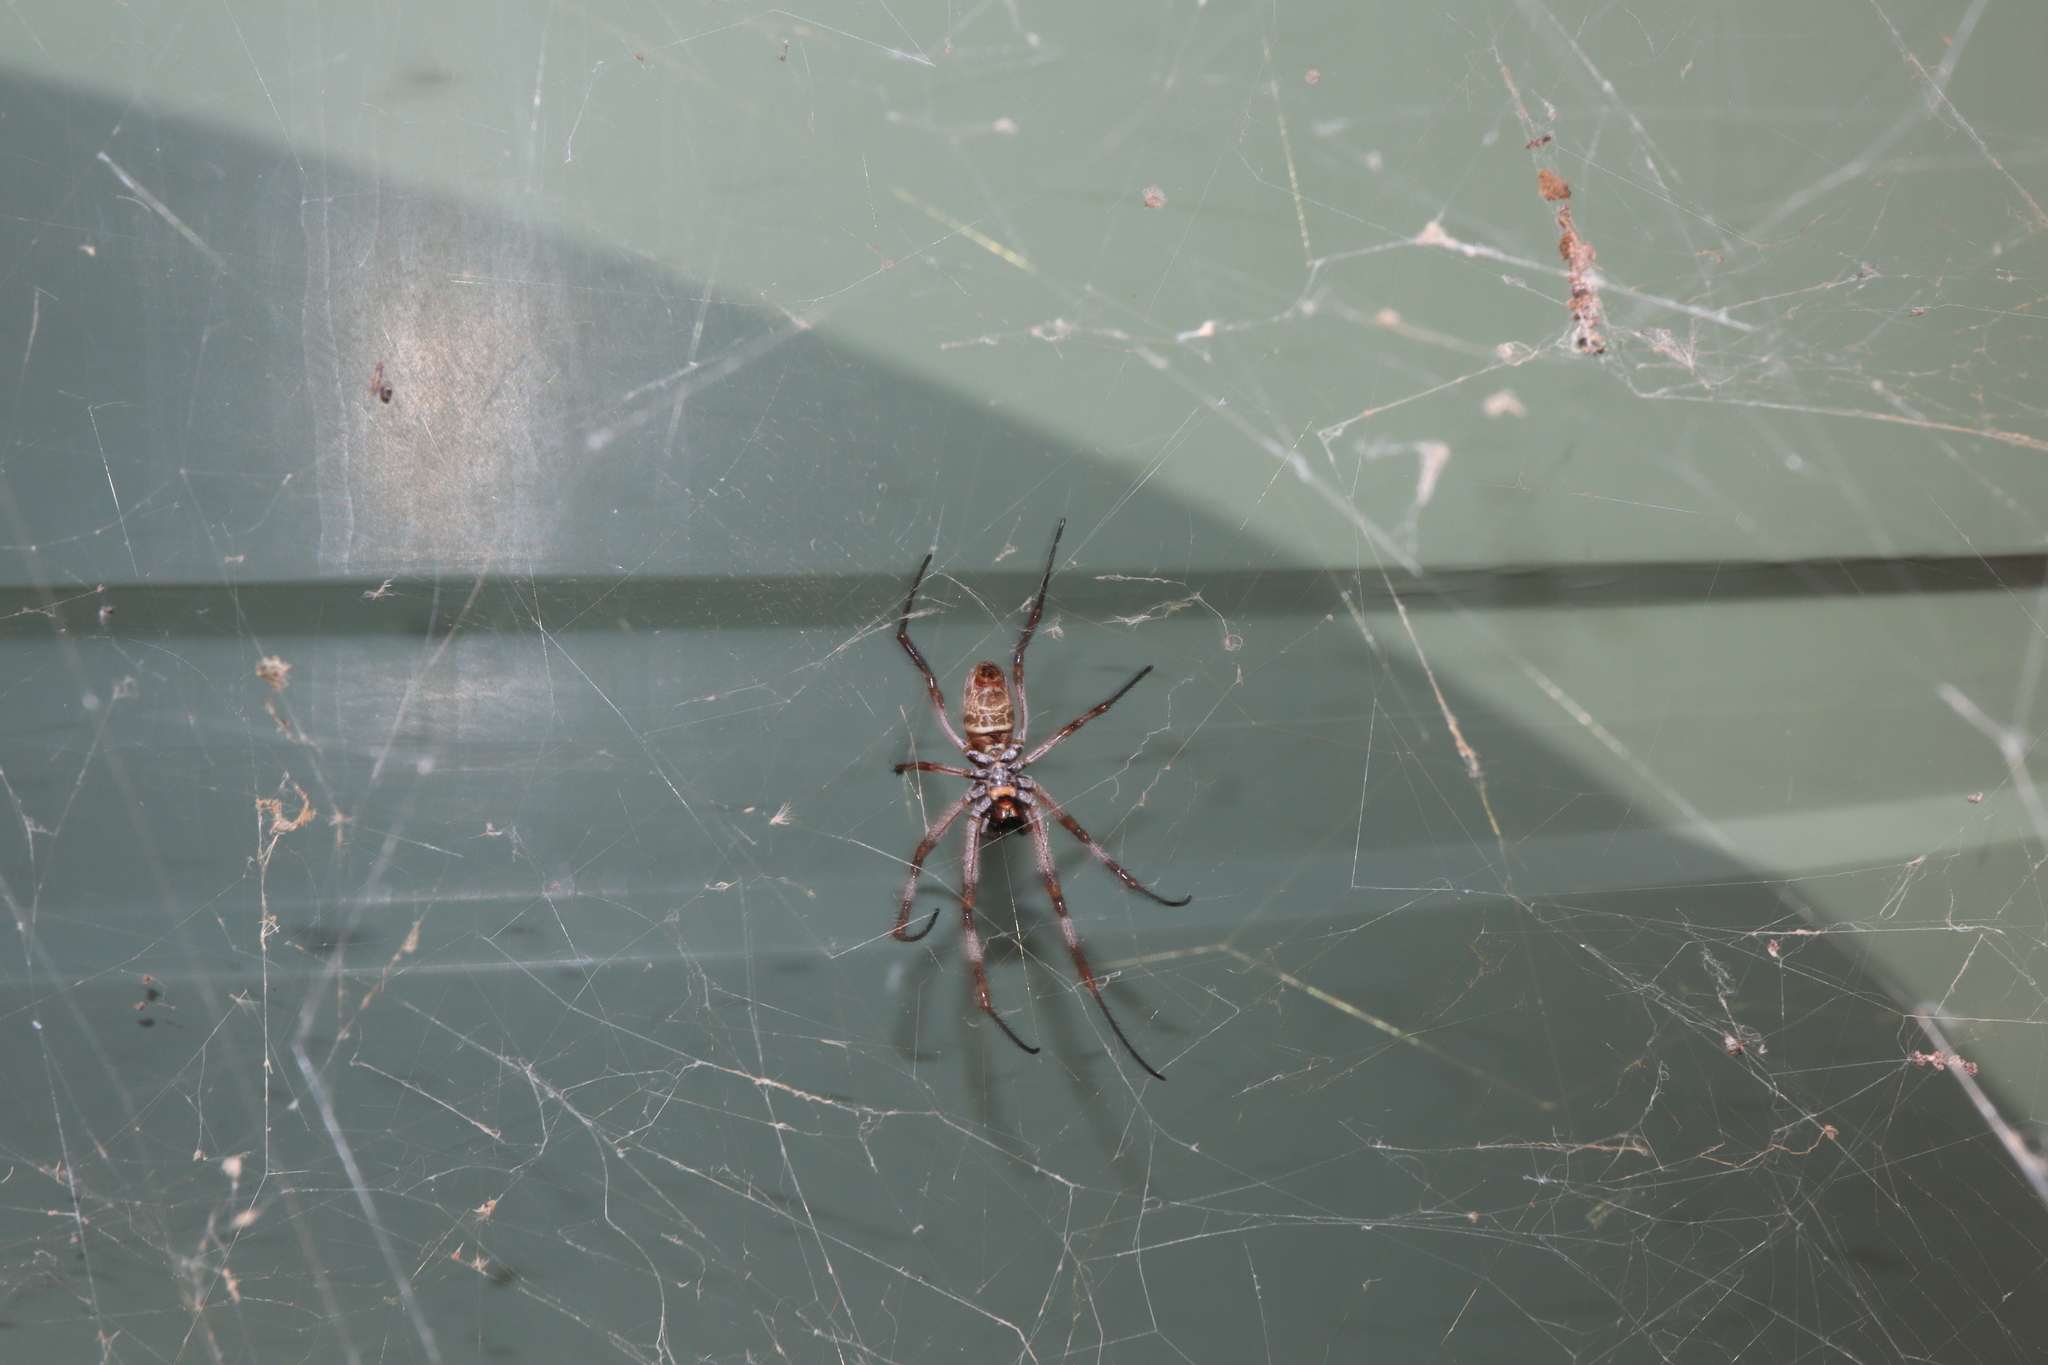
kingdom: Animalia
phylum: Arthropoda
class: Arachnida
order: Araneae
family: Araneidae
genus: Trichonephila
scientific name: Trichonephila edulis
